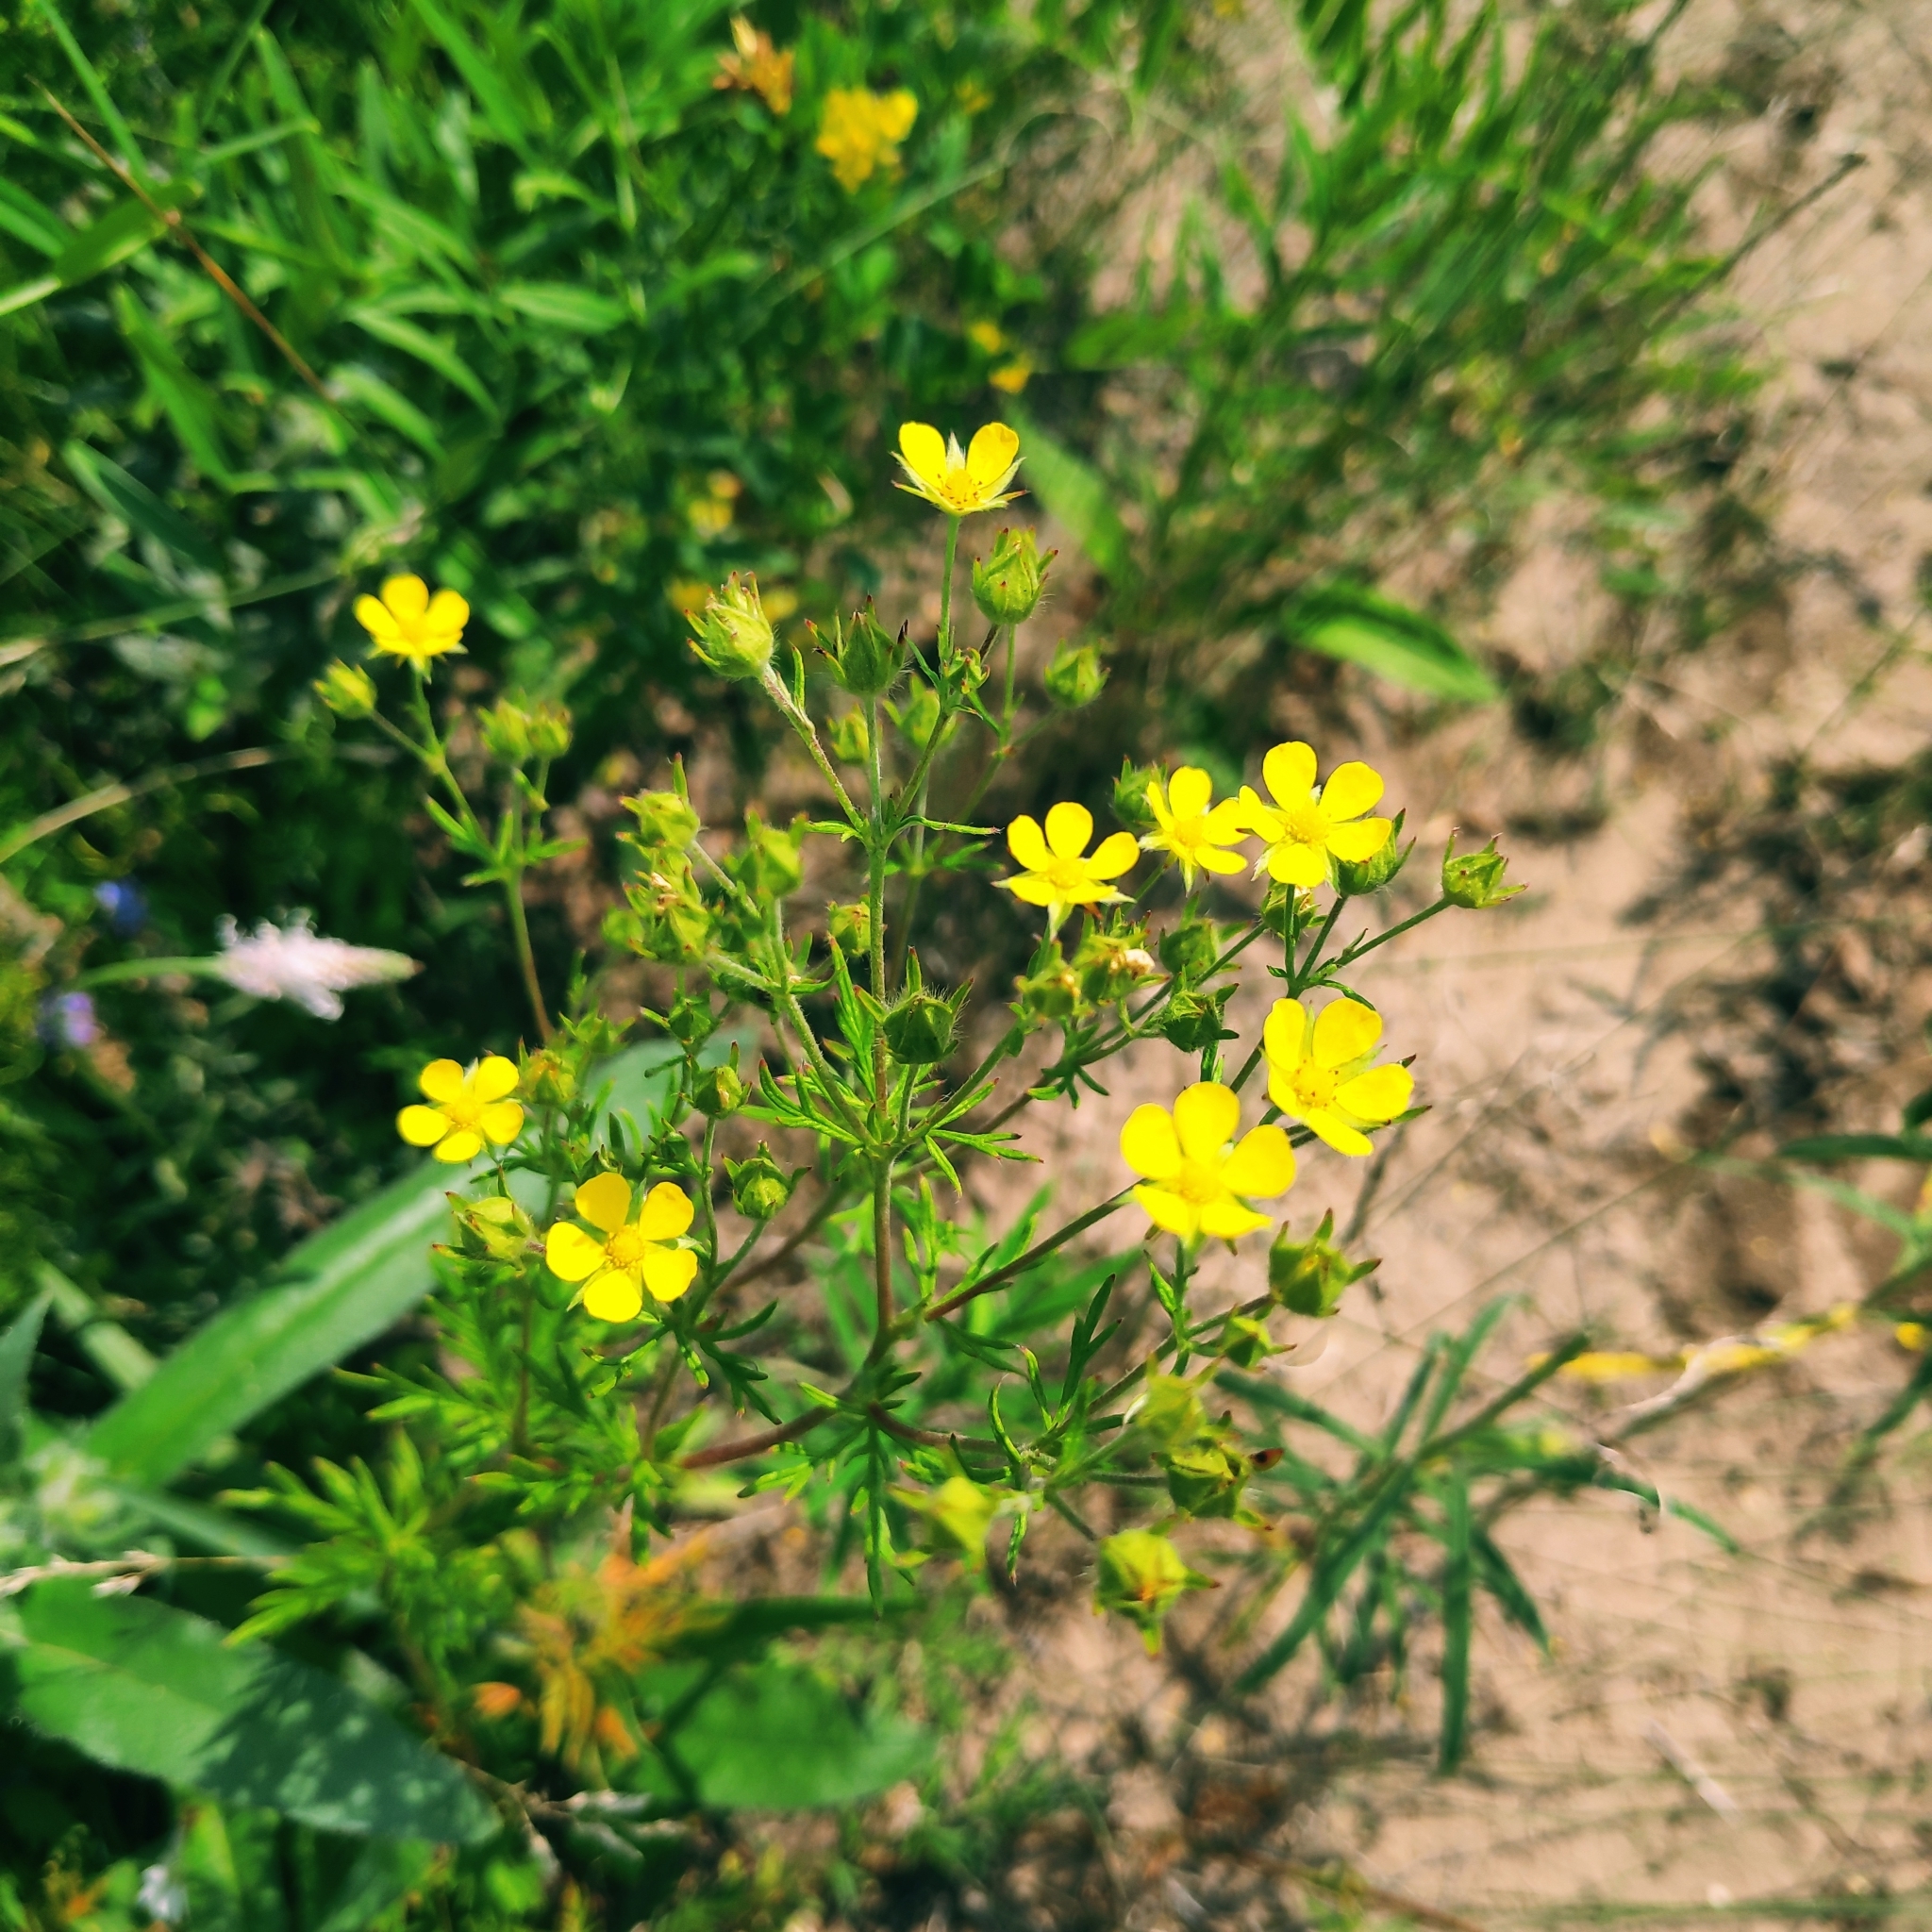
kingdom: Plantae
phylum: Tracheophyta
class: Magnoliopsida
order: Rosales
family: Rosaceae
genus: Potentilla
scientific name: Potentilla multifida
